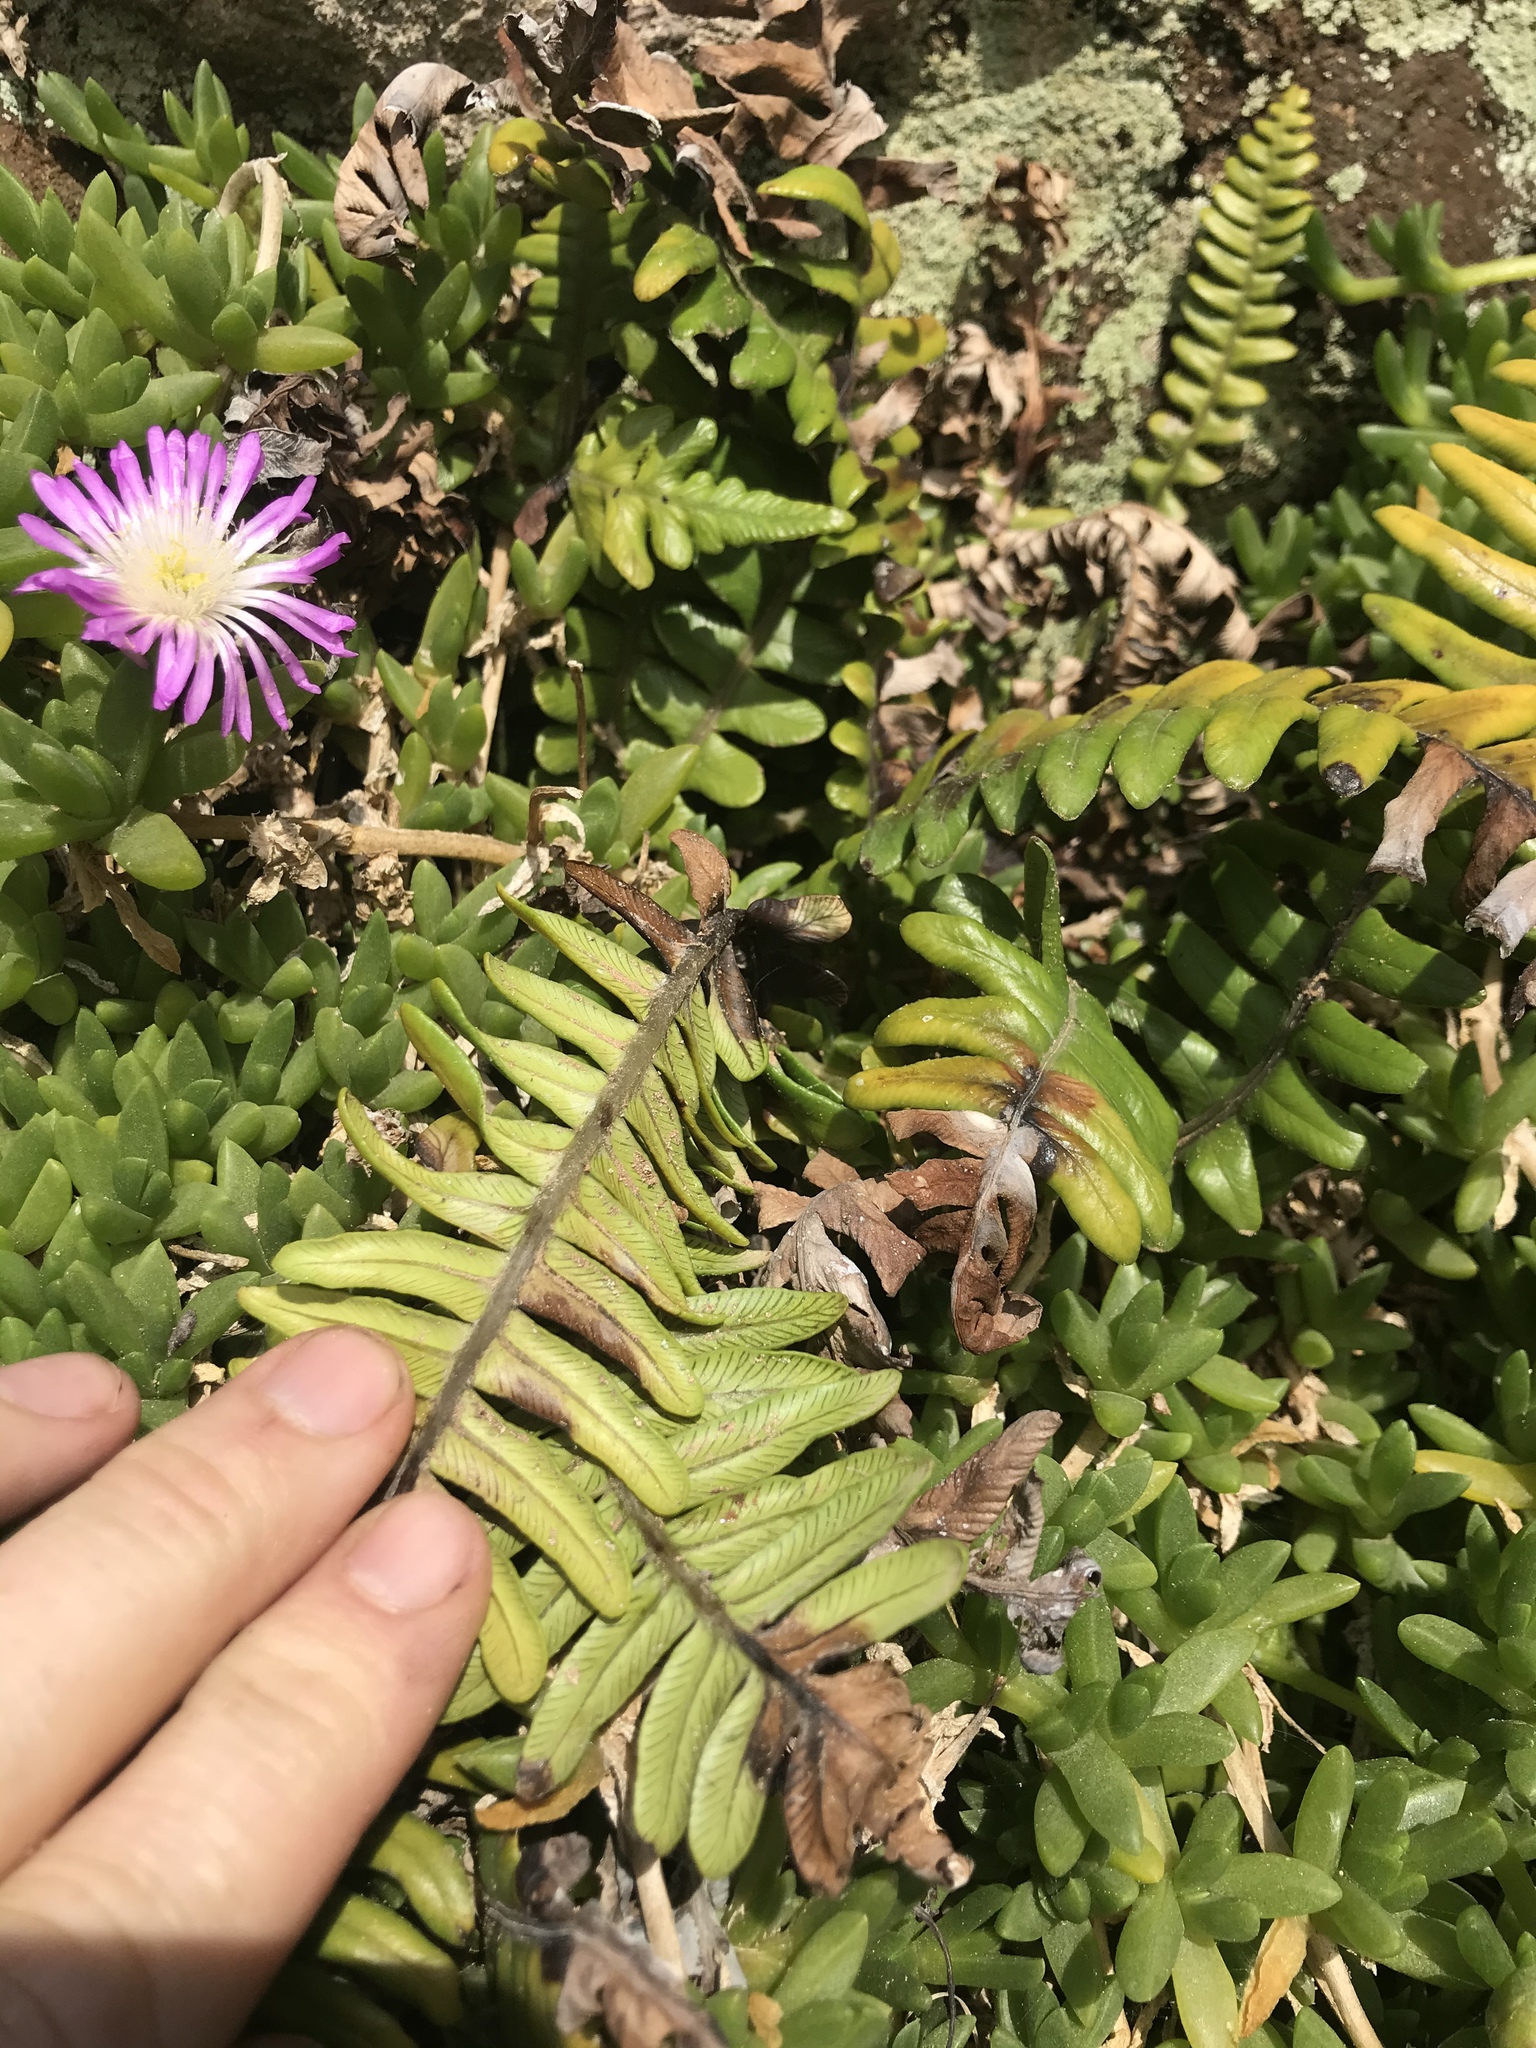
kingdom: Plantae
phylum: Tracheophyta
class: Polypodiopsida
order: Polypodiales
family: Blechnaceae
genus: Austroblechnum
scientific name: Austroblechnum durum
